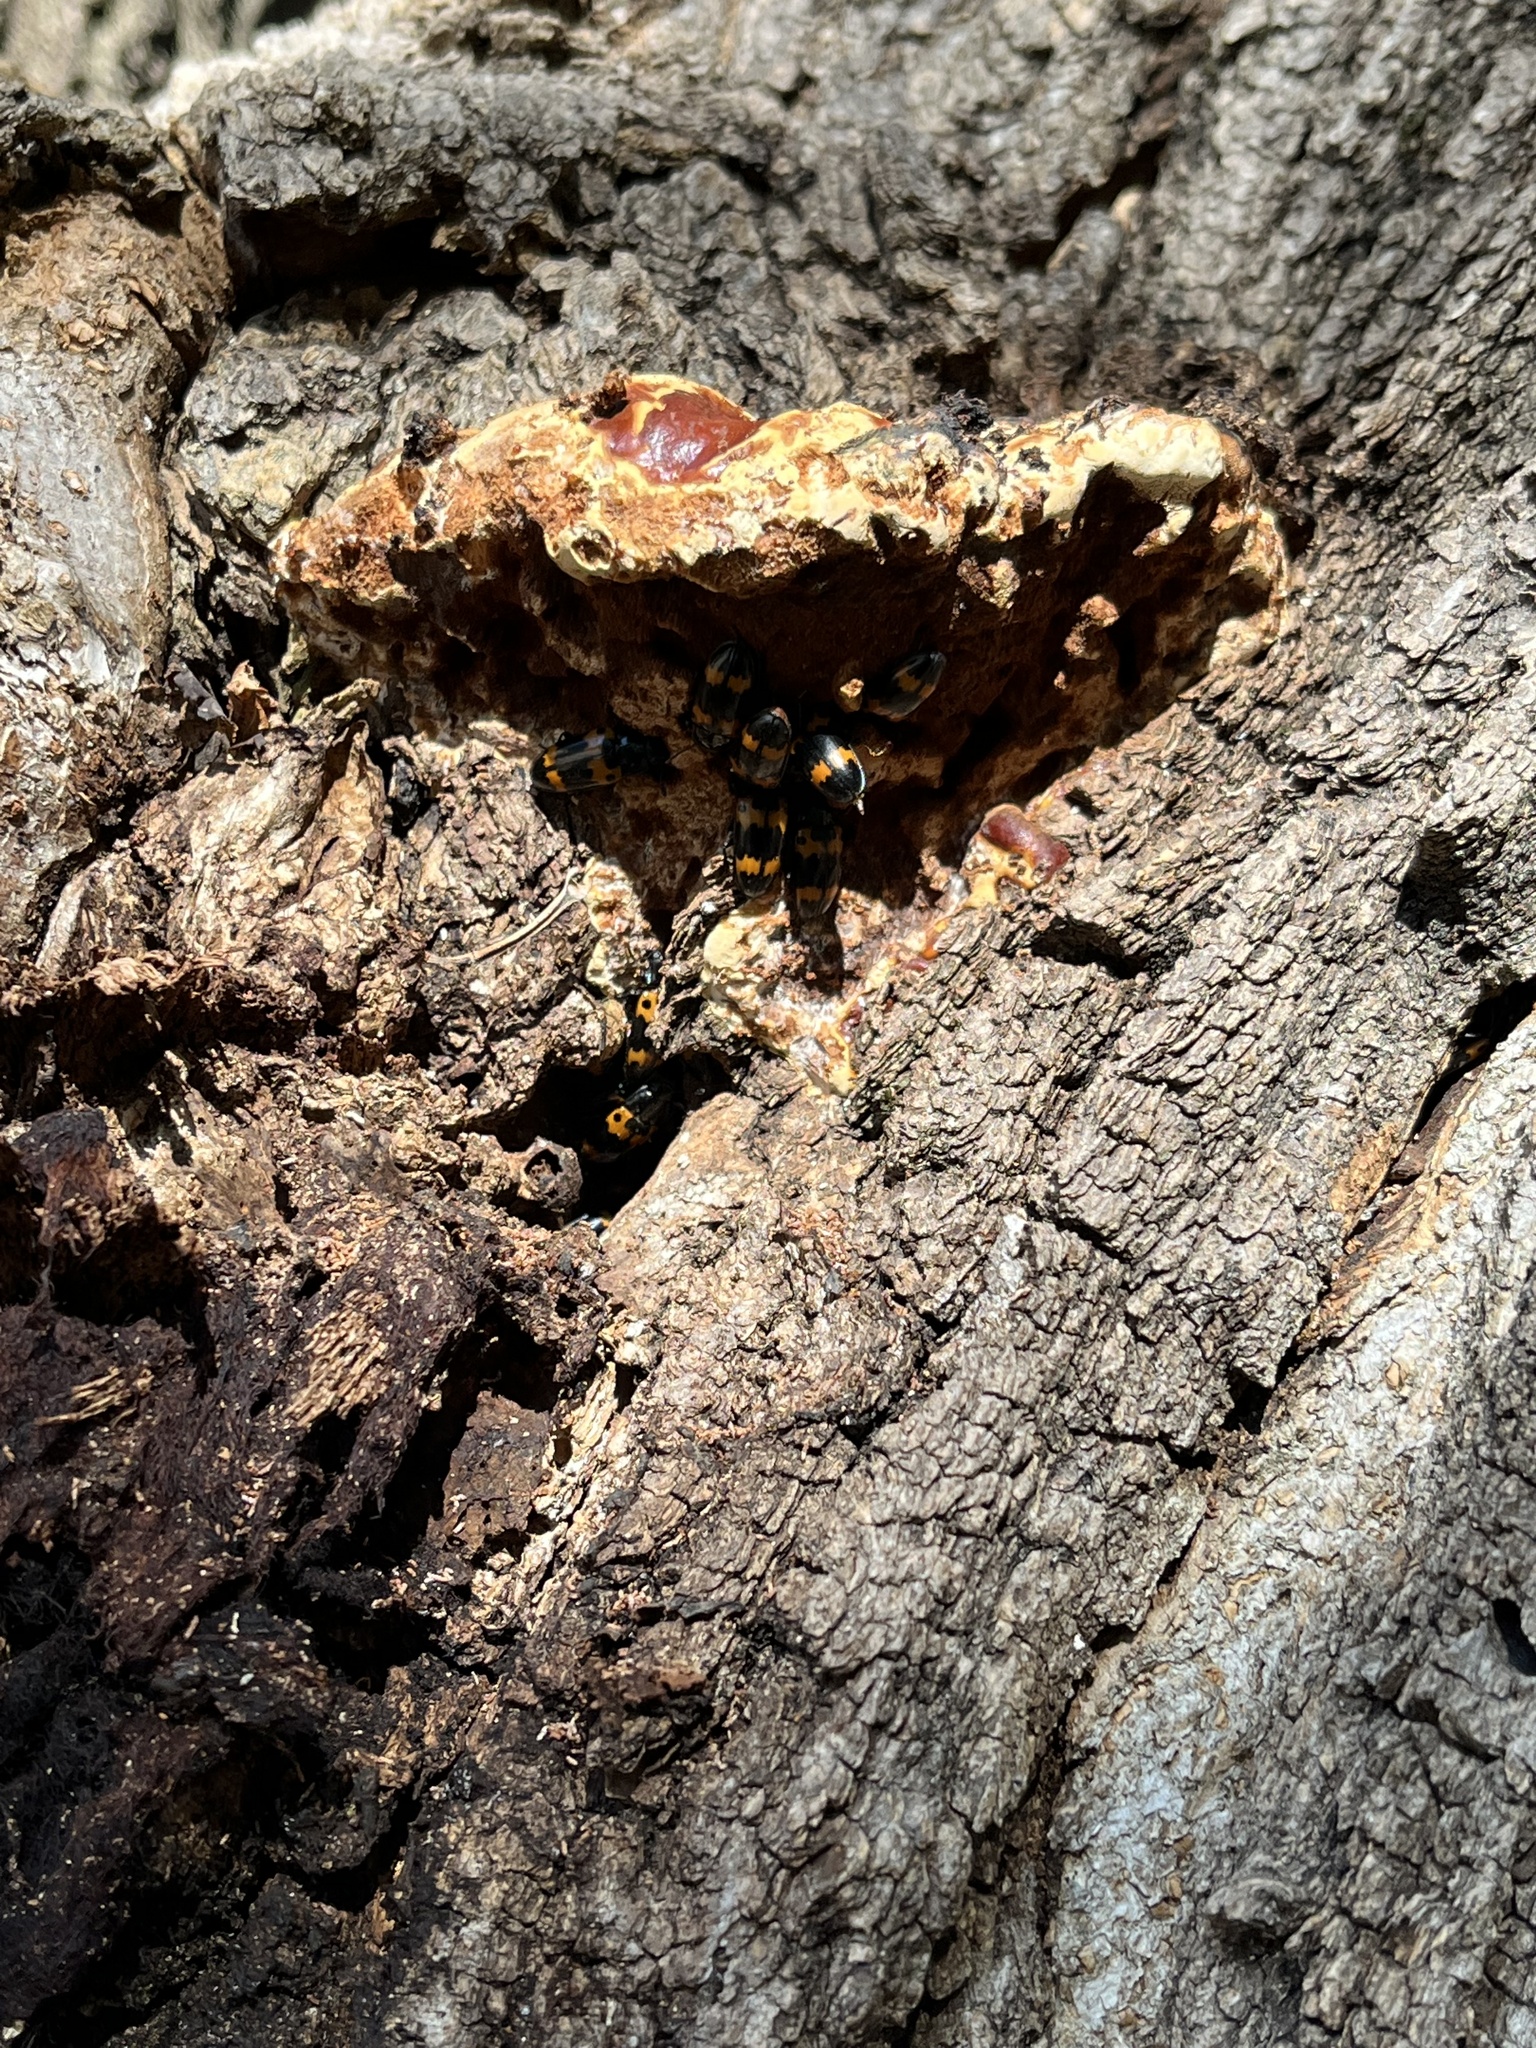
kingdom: Animalia
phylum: Arthropoda
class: Insecta
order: Coleoptera
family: Erotylidae
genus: Megalodacne
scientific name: Megalodacne fasciata
